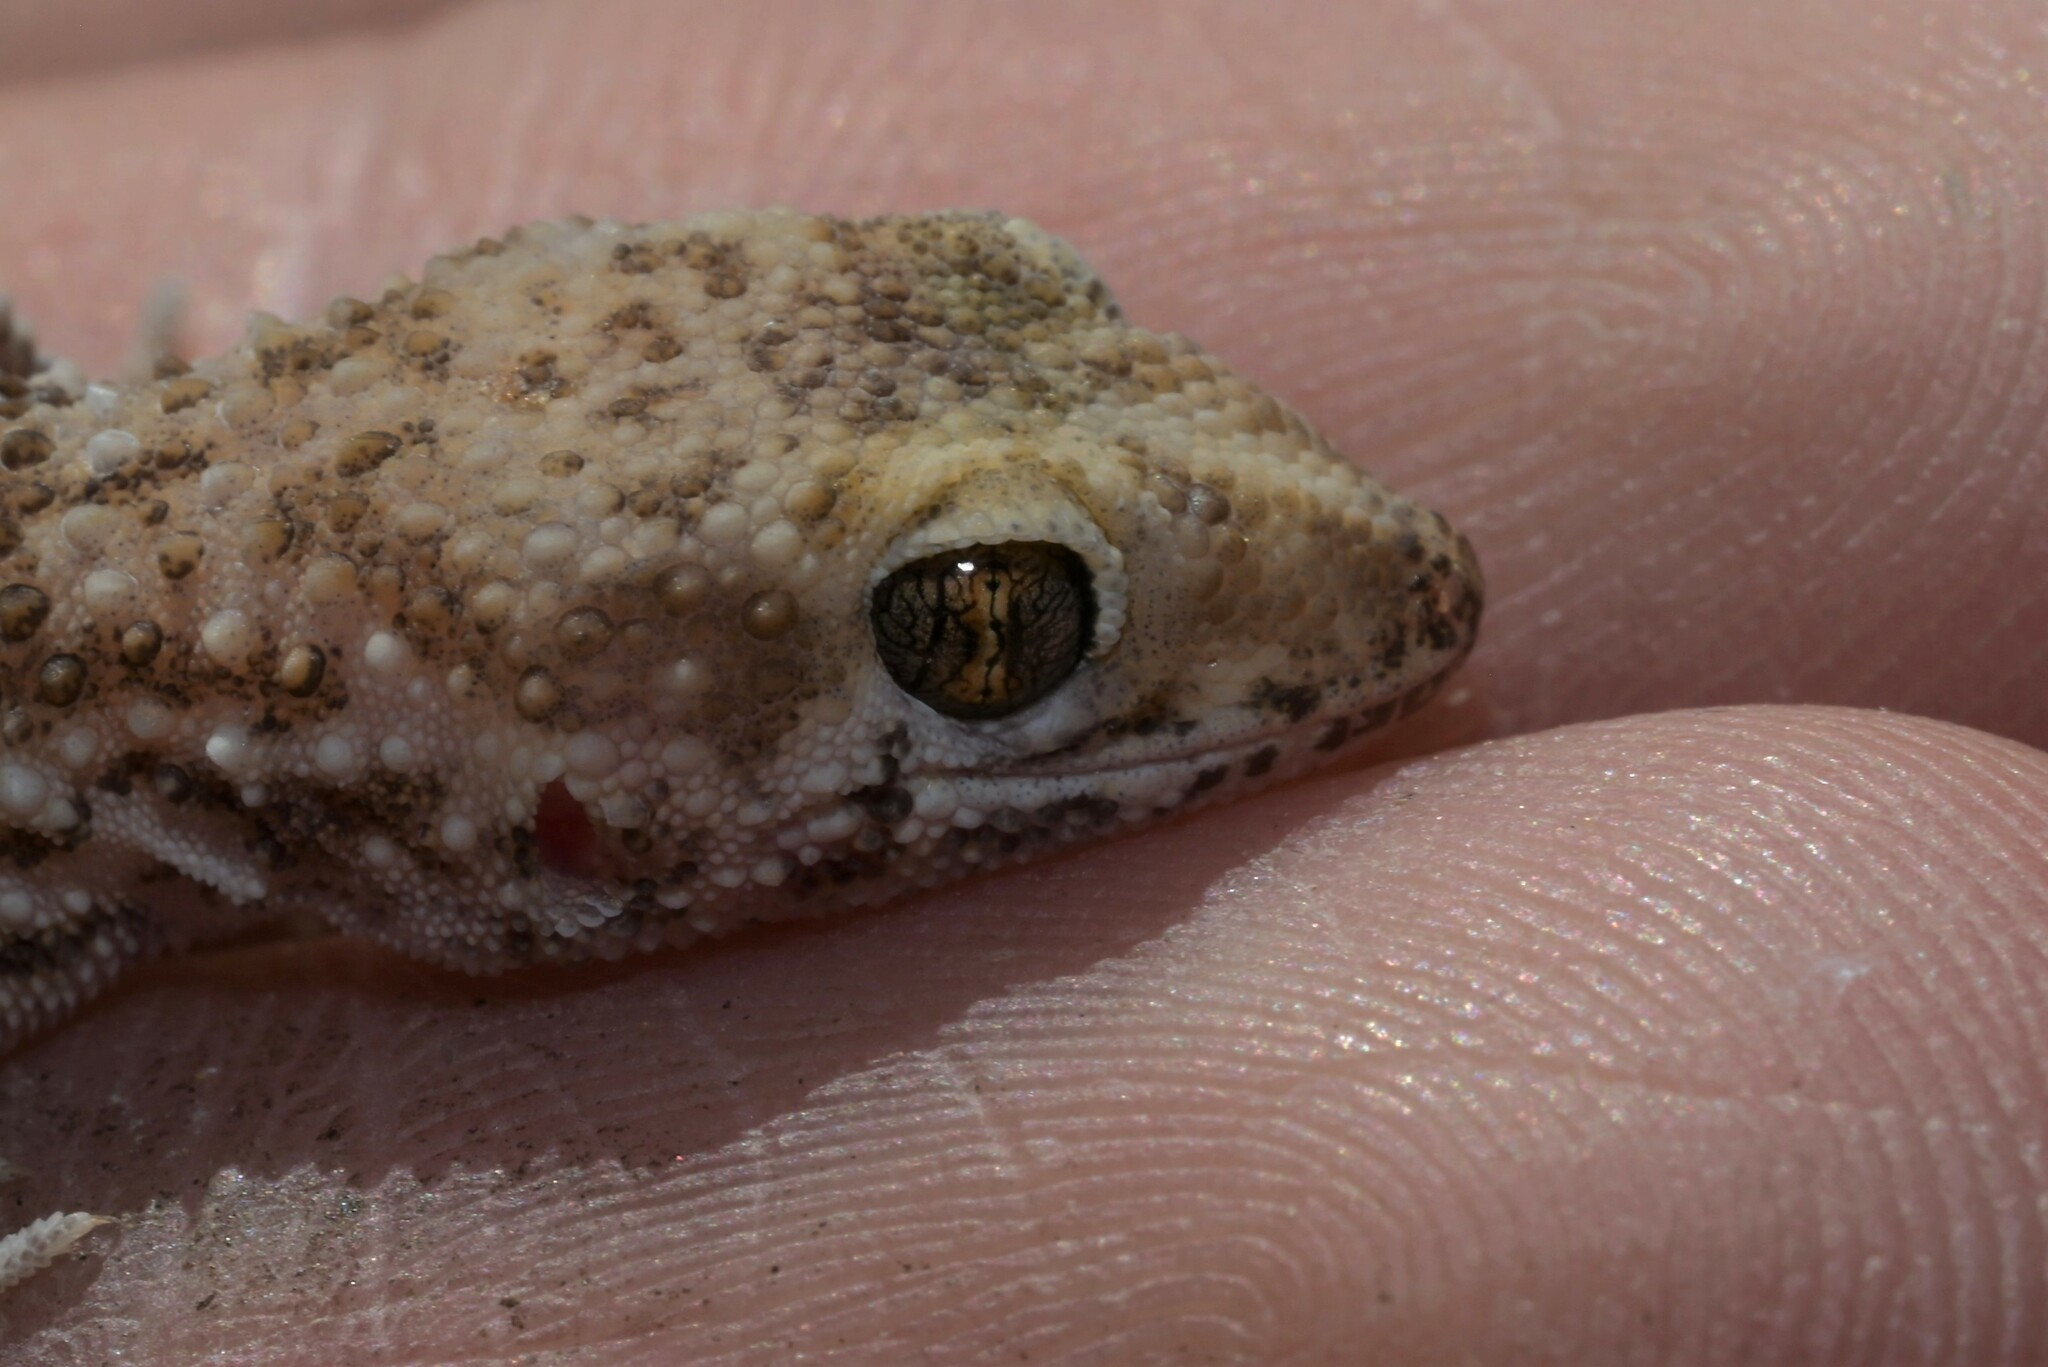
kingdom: Animalia
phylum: Chordata
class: Squamata
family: Gekkonidae
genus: Bunopus
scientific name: Bunopus tuberculatus
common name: Southern tuberculated gecko
